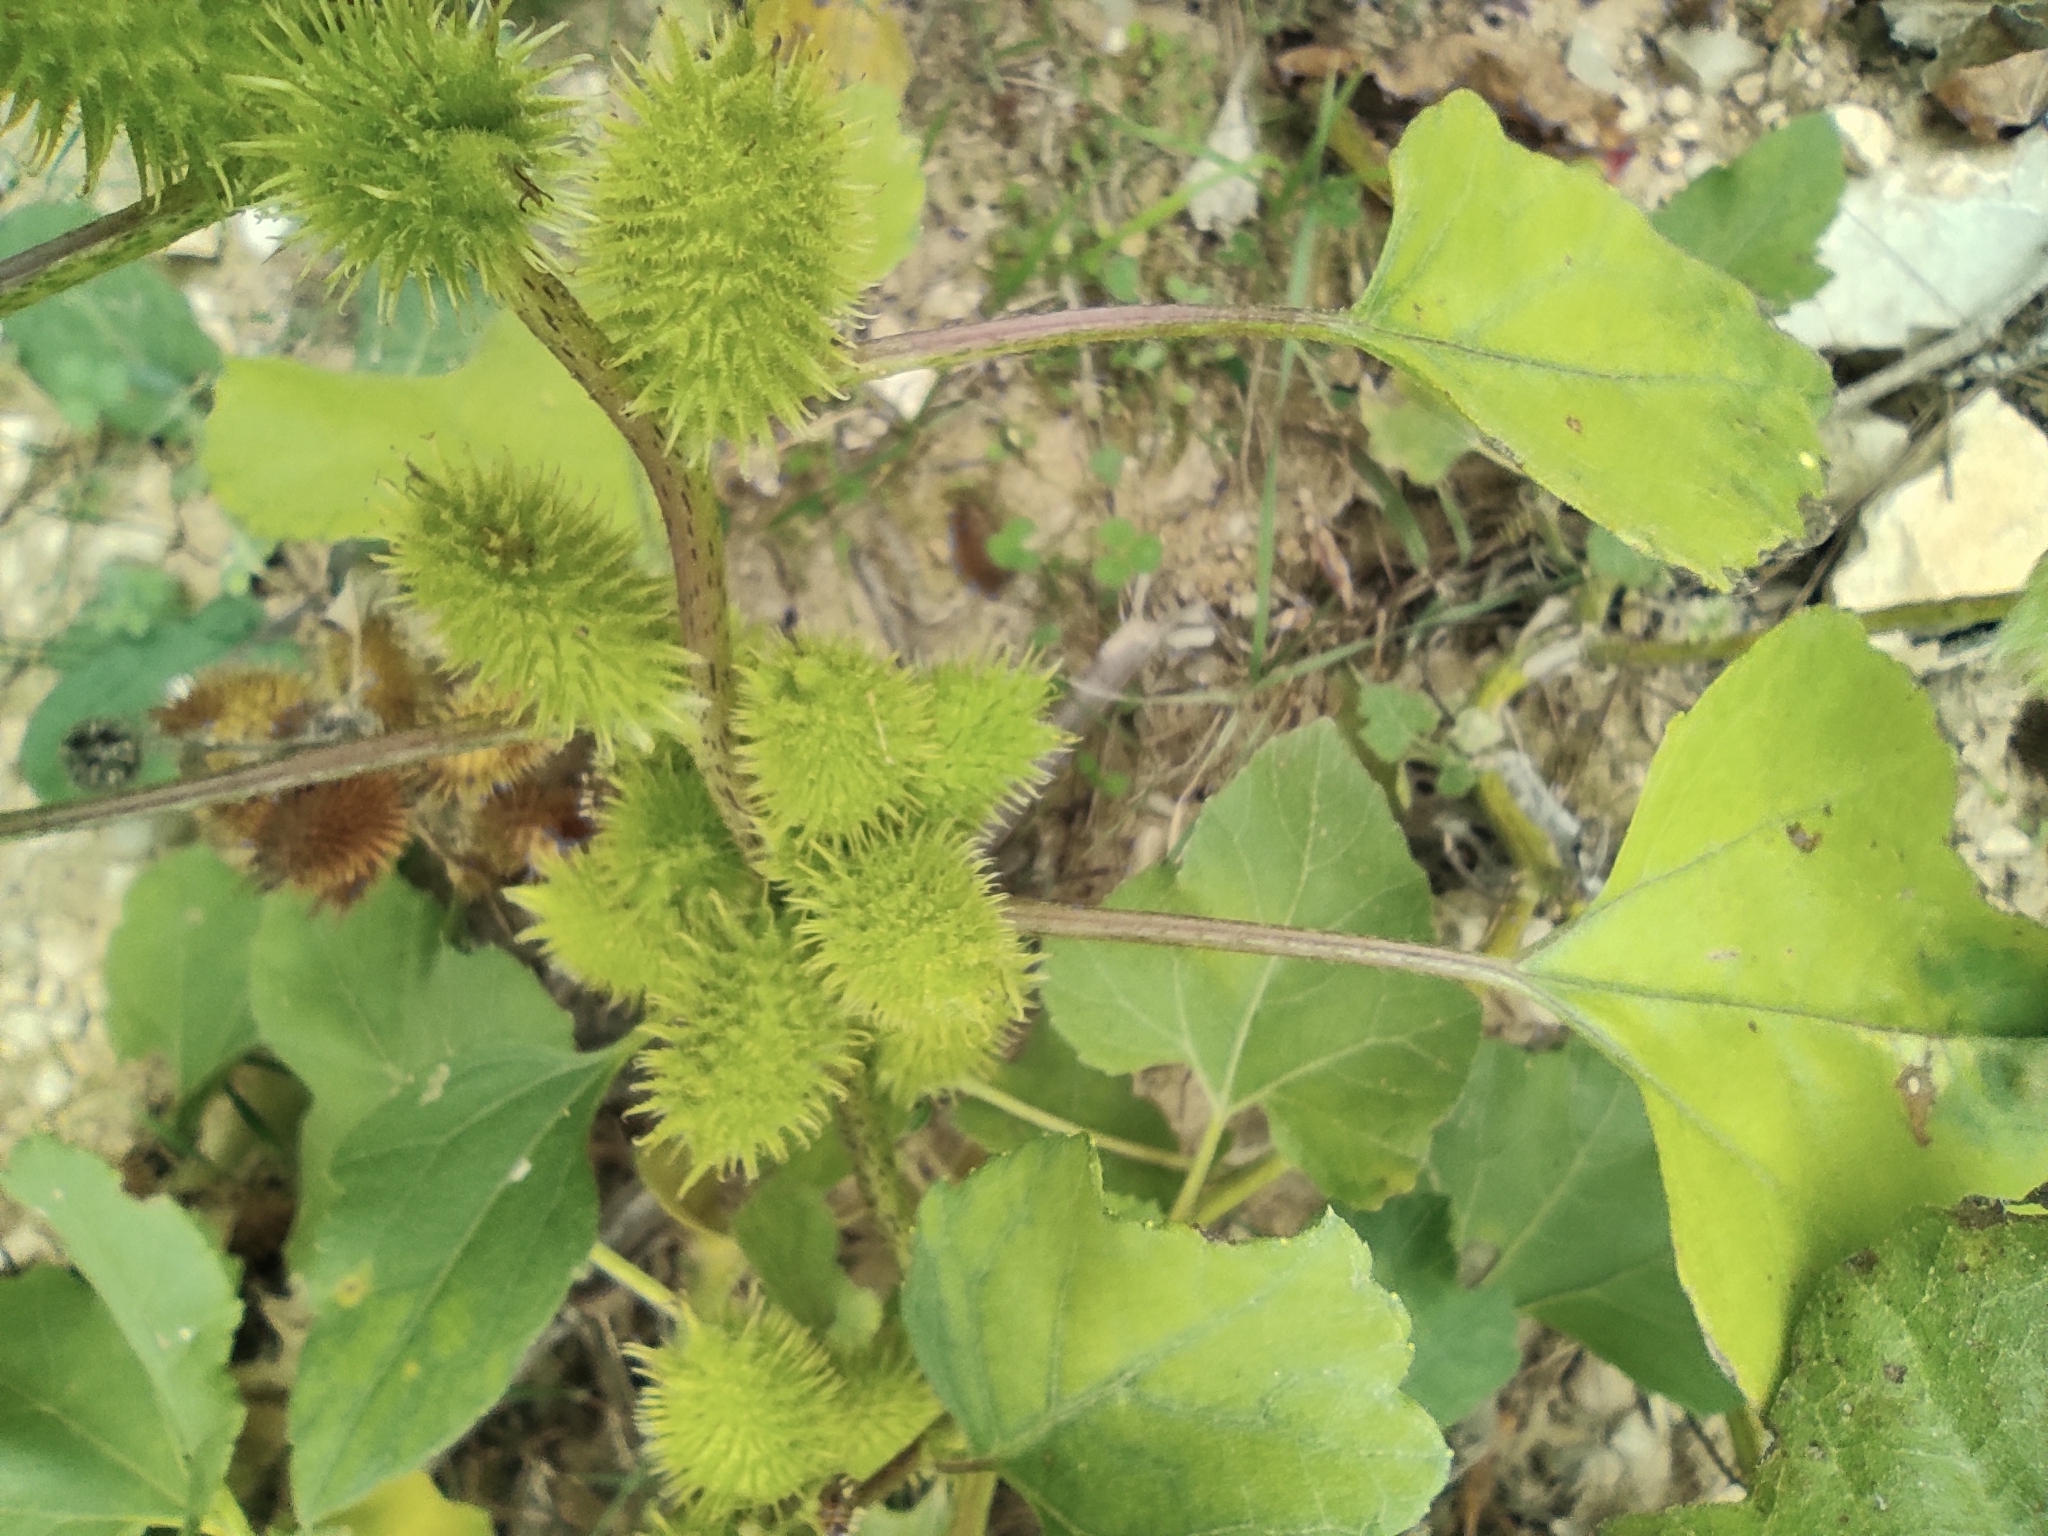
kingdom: Plantae
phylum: Tracheophyta
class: Magnoliopsida
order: Asterales
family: Asteraceae
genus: Xanthium
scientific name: Xanthium strumarium
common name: Rough cocklebur
